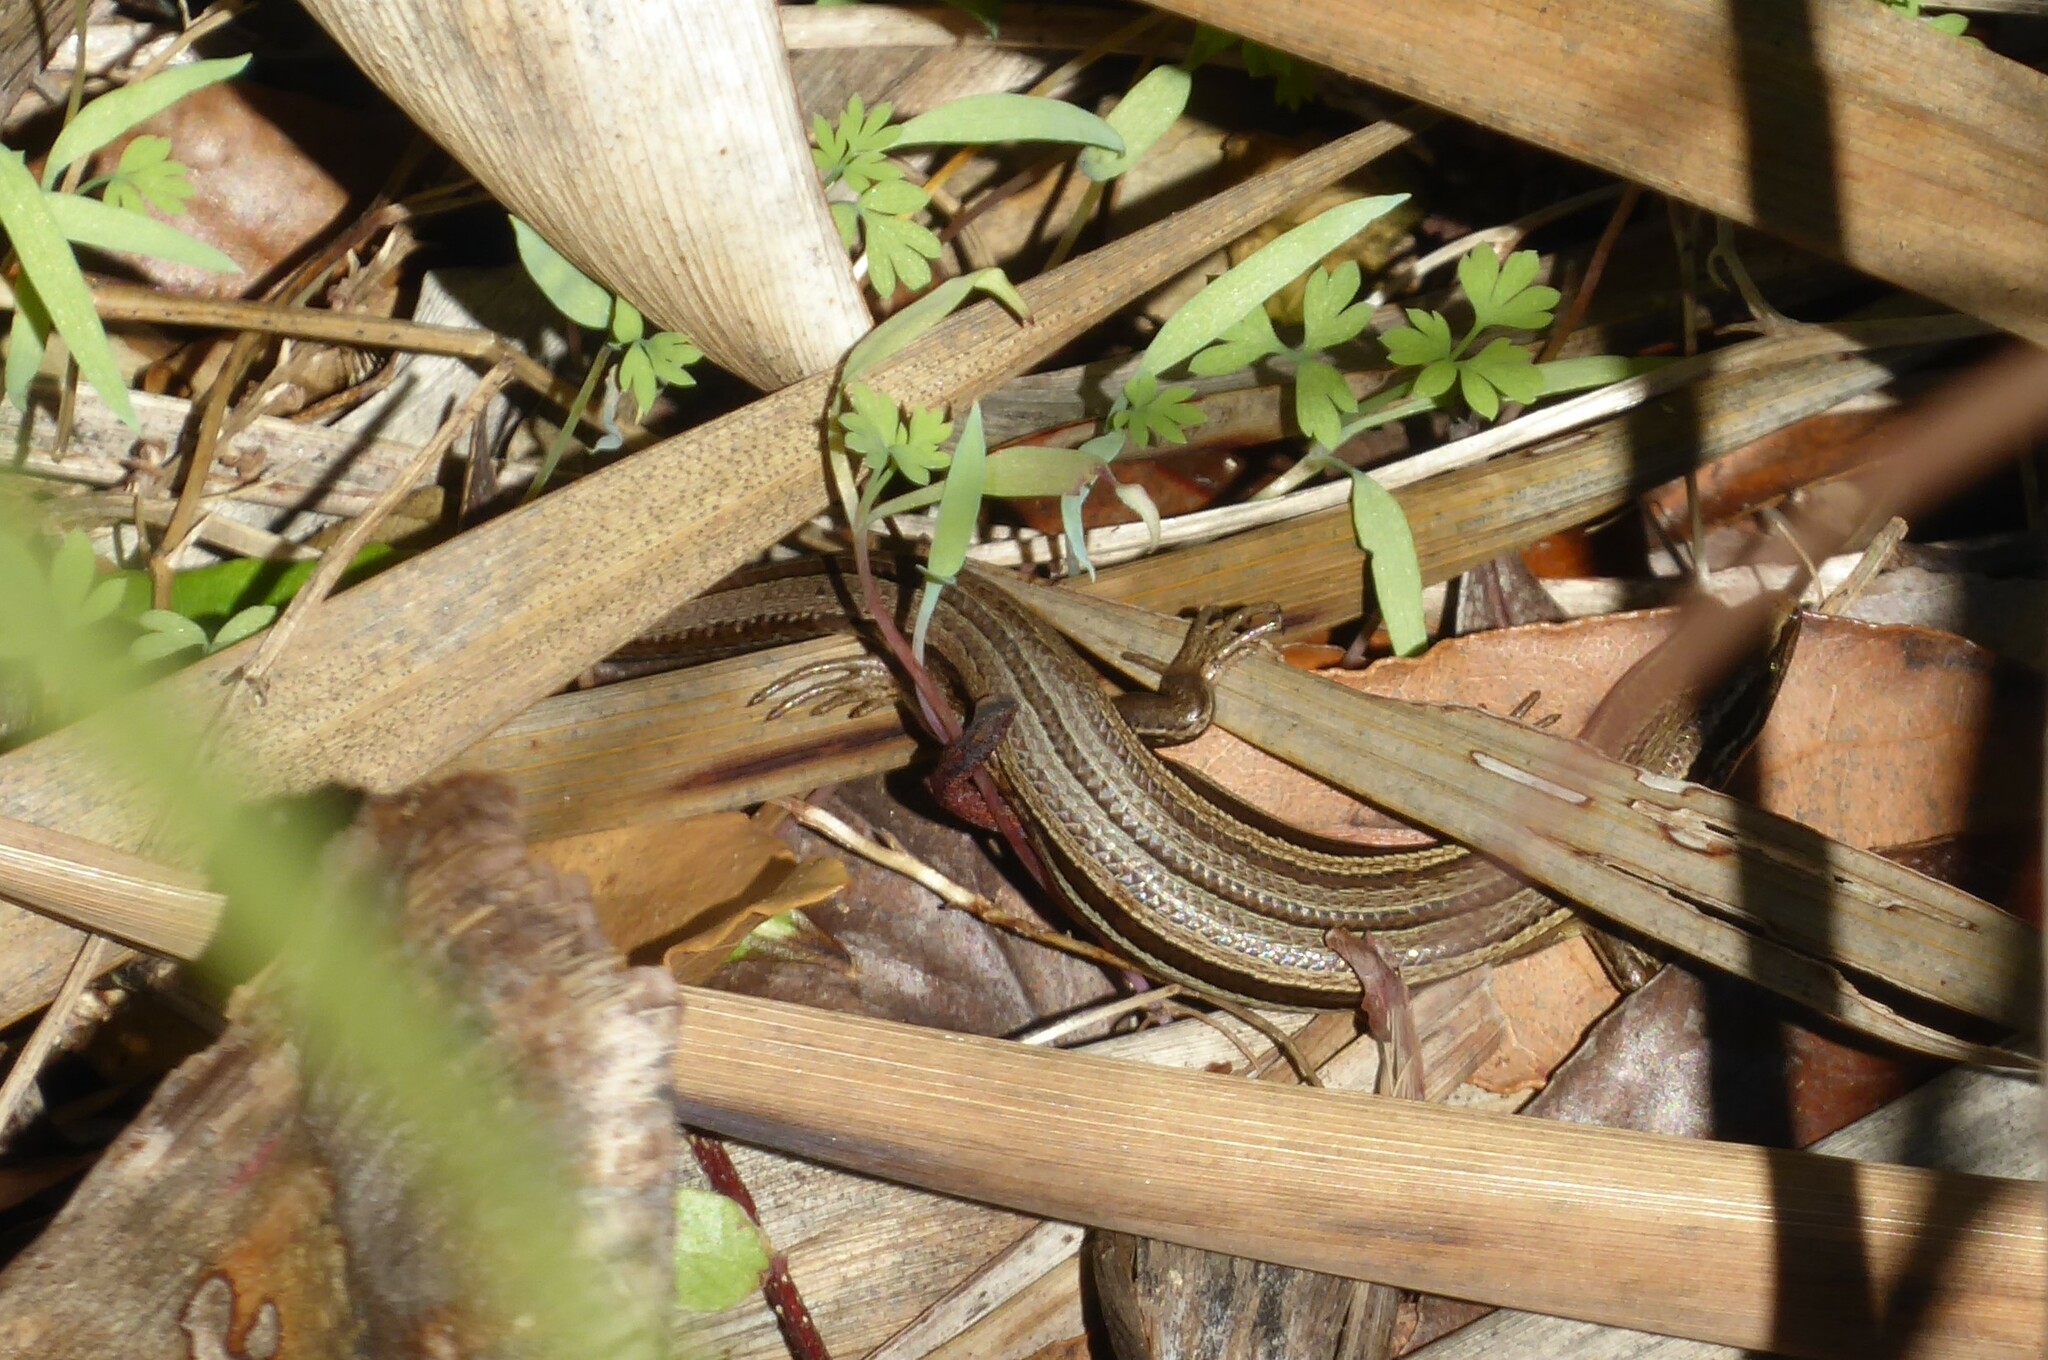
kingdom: Animalia
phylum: Chordata
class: Squamata
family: Scincidae
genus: Oligosoma
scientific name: Oligosoma polychroma
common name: Common new zealand skink
